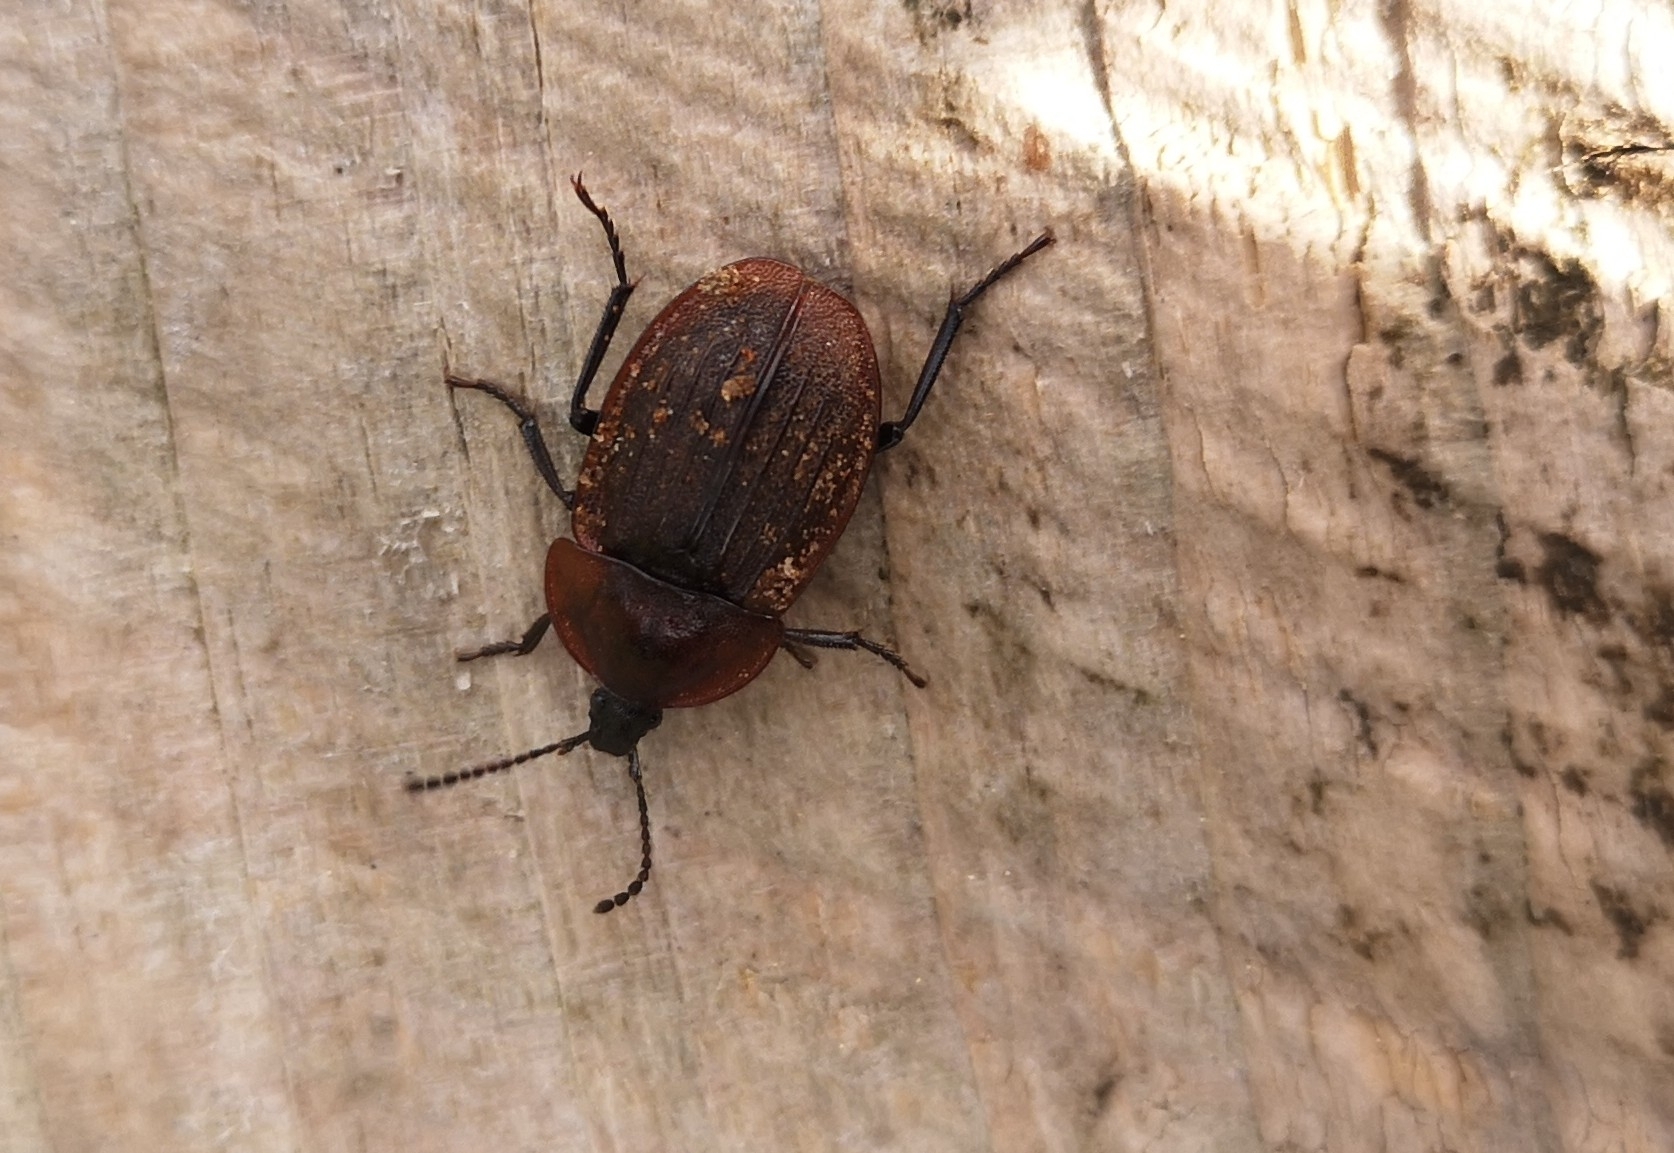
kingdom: Animalia
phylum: Arthropoda
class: Insecta
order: Coleoptera
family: Staphylinidae
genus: Silpha
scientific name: Silpha atrata
